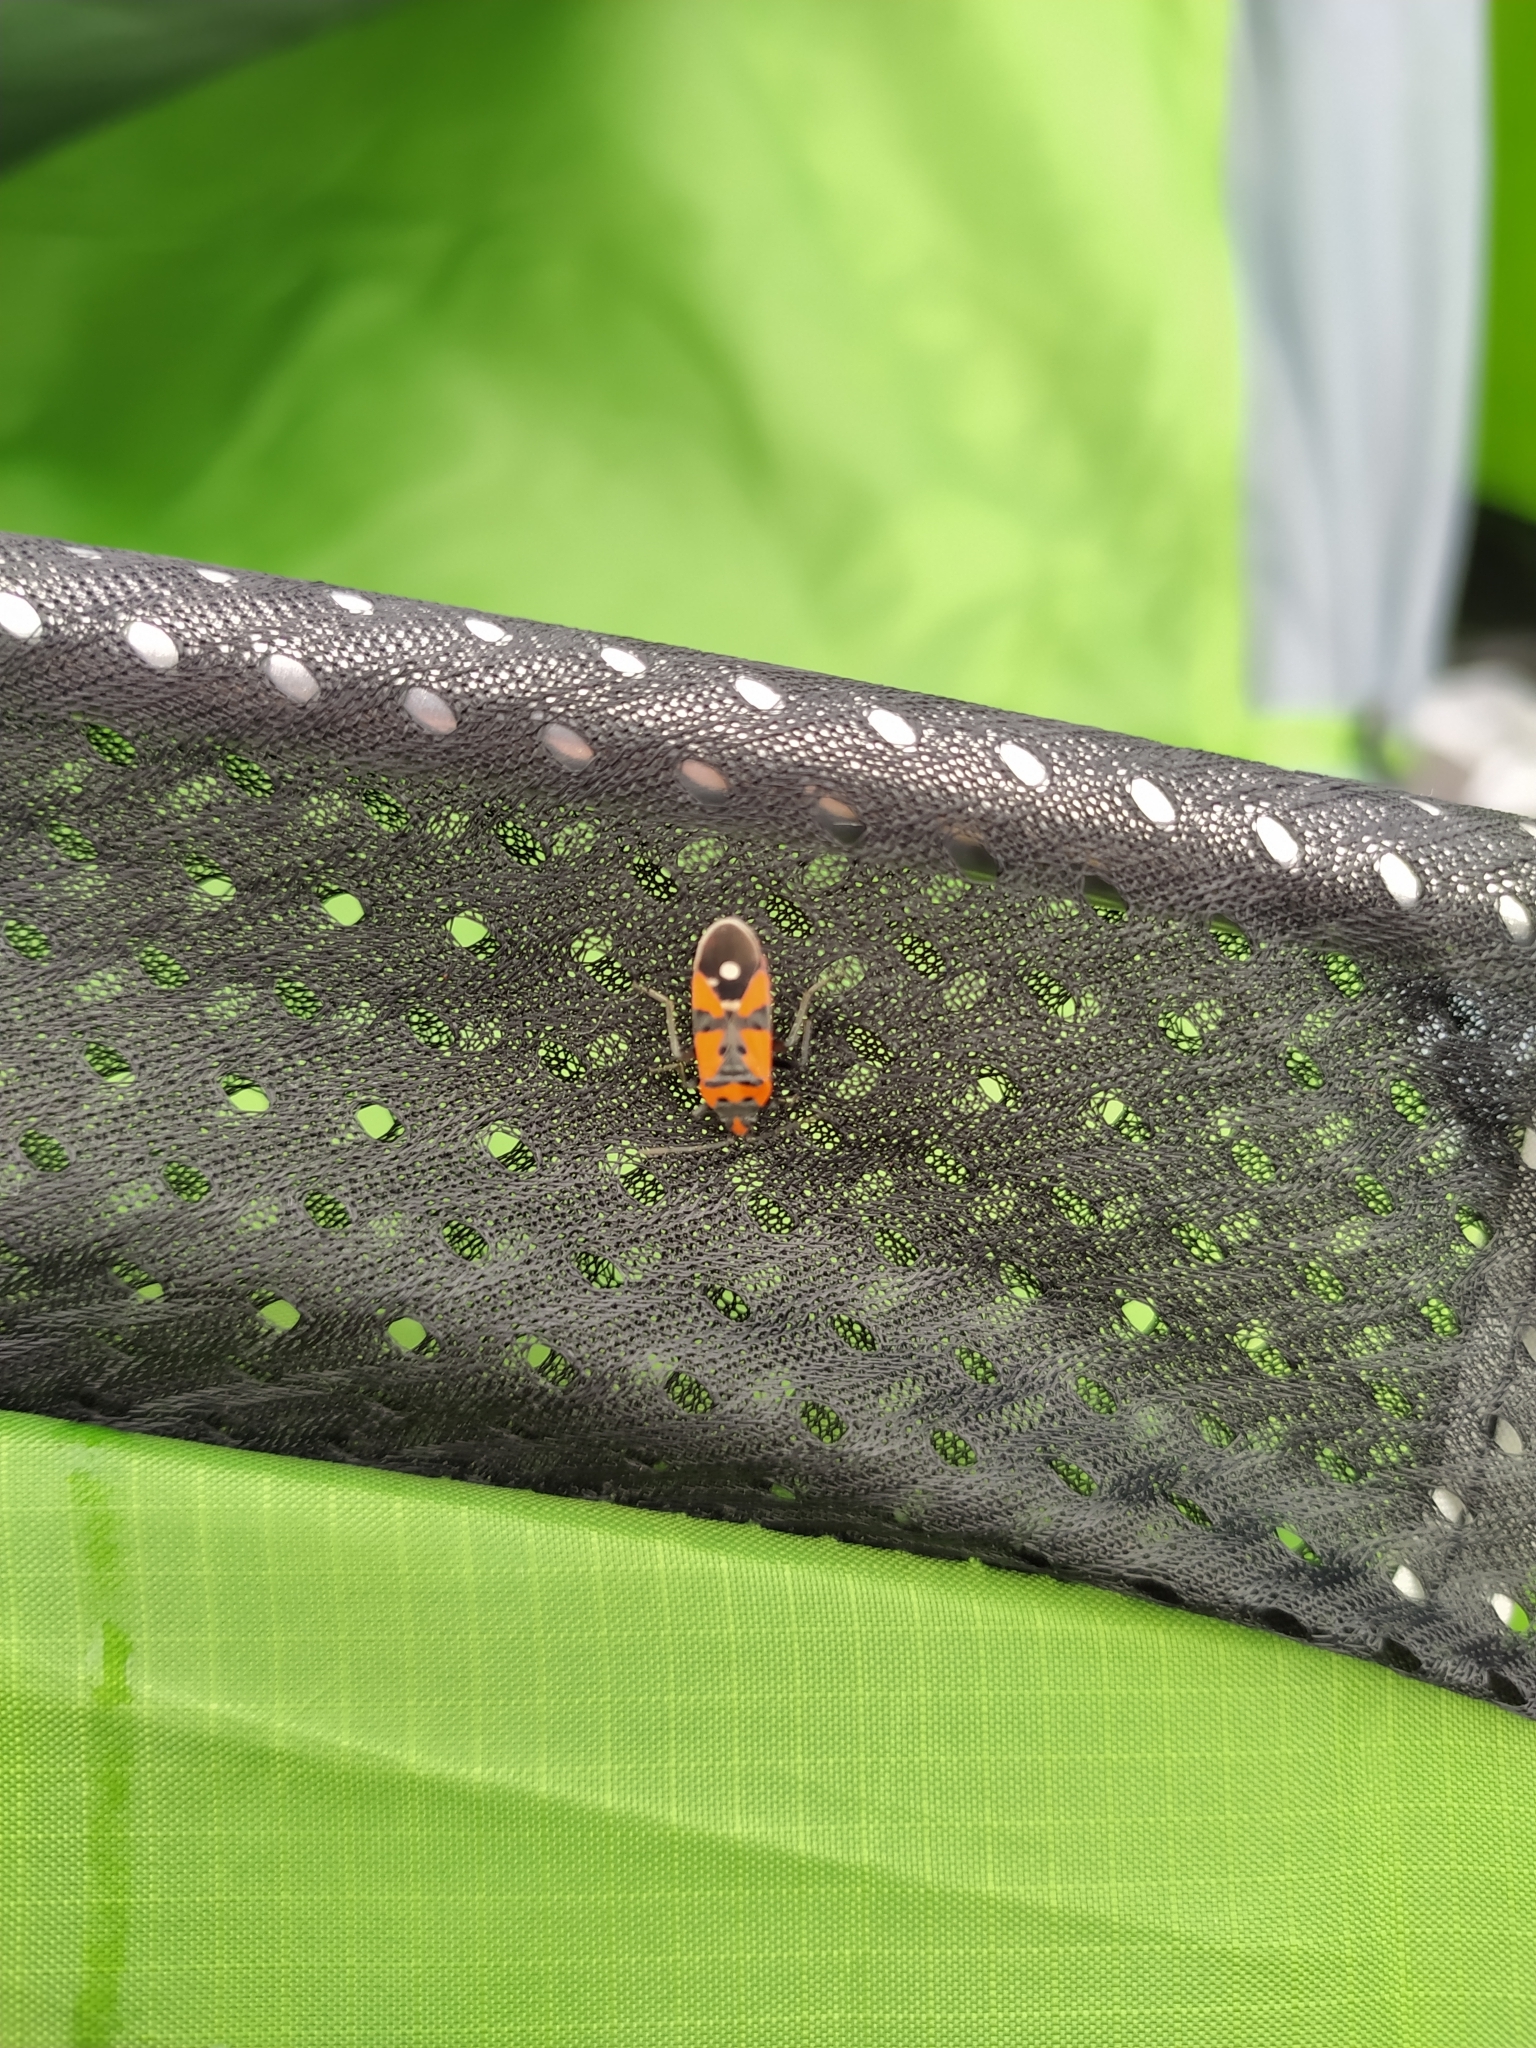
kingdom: Animalia
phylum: Arthropoda
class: Insecta
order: Hemiptera
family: Lygaeidae
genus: Lygaeus
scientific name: Lygaeus equestris
